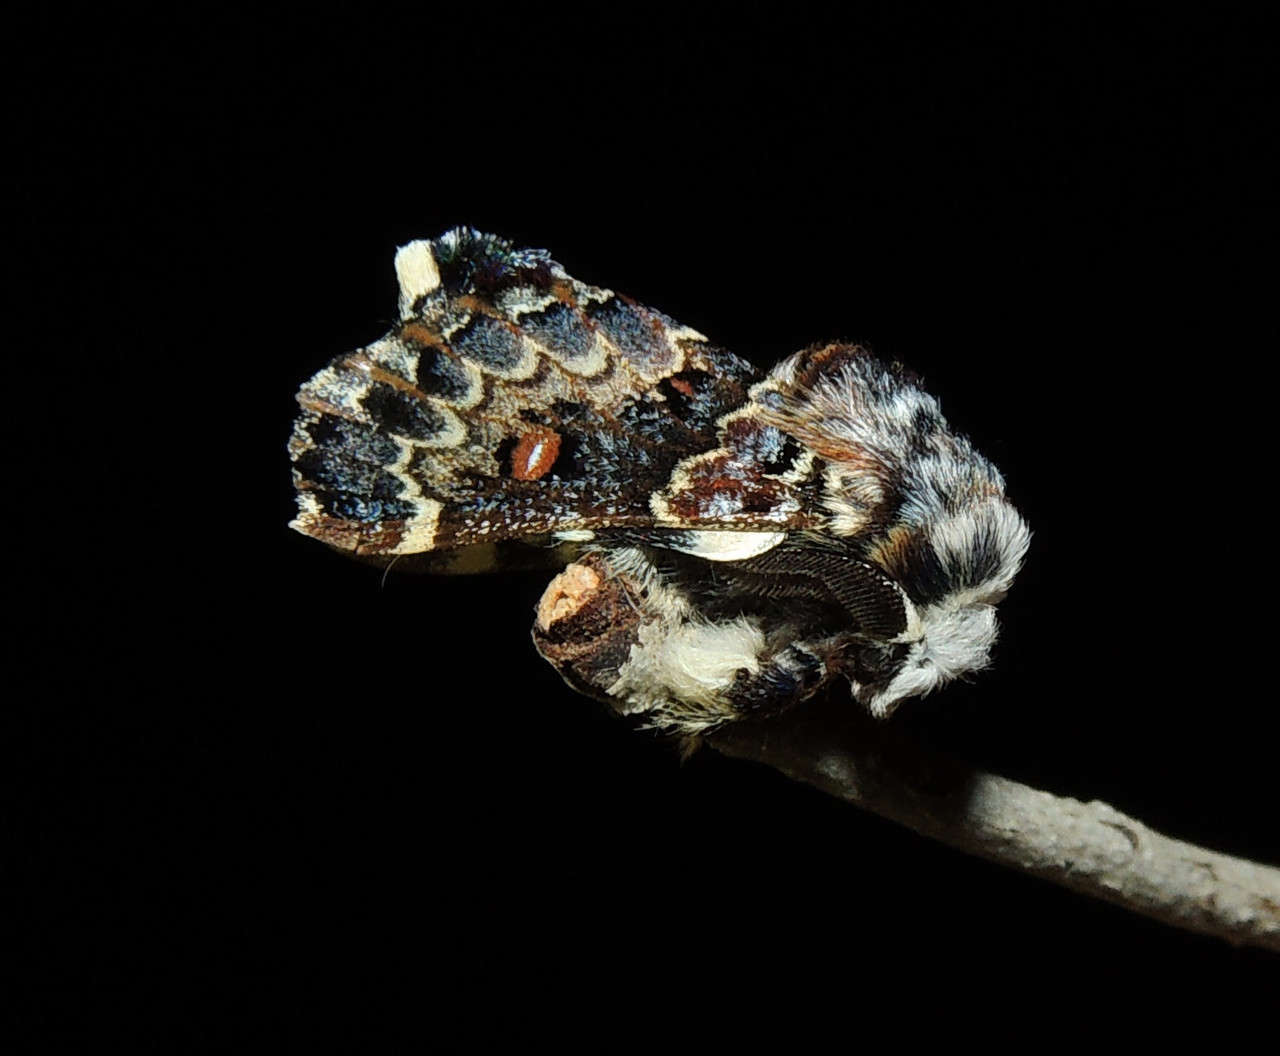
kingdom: Animalia
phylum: Arthropoda
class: Insecta
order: Lepidoptera
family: Lasiocampidae
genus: Genduara
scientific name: Genduara acedesta
